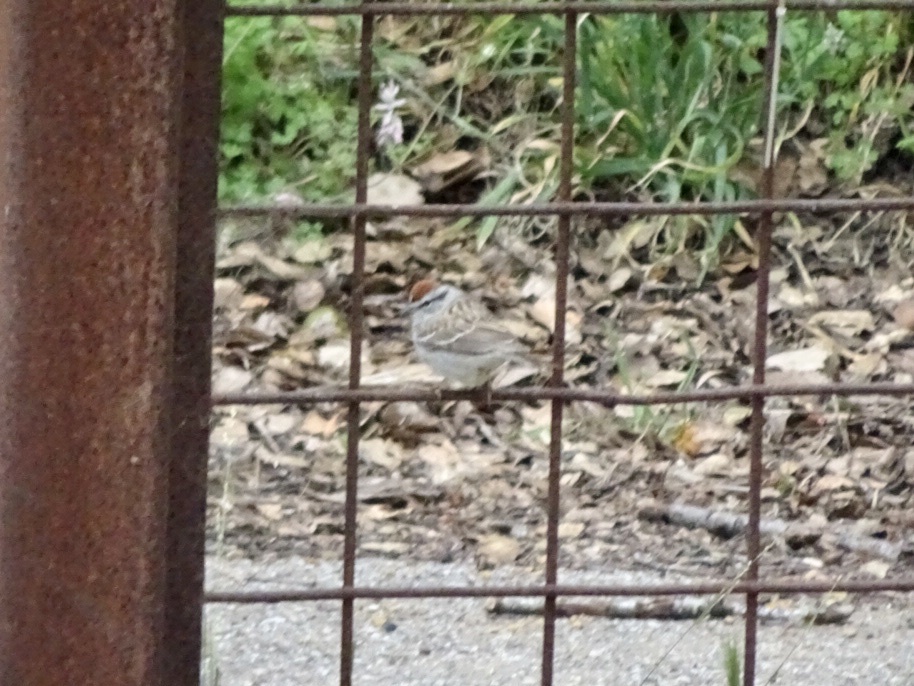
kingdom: Animalia
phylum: Chordata
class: Aves
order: Passeriformes
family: Passerellidae
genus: Spizella
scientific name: Spizella passerina
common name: Chipping sparrow
